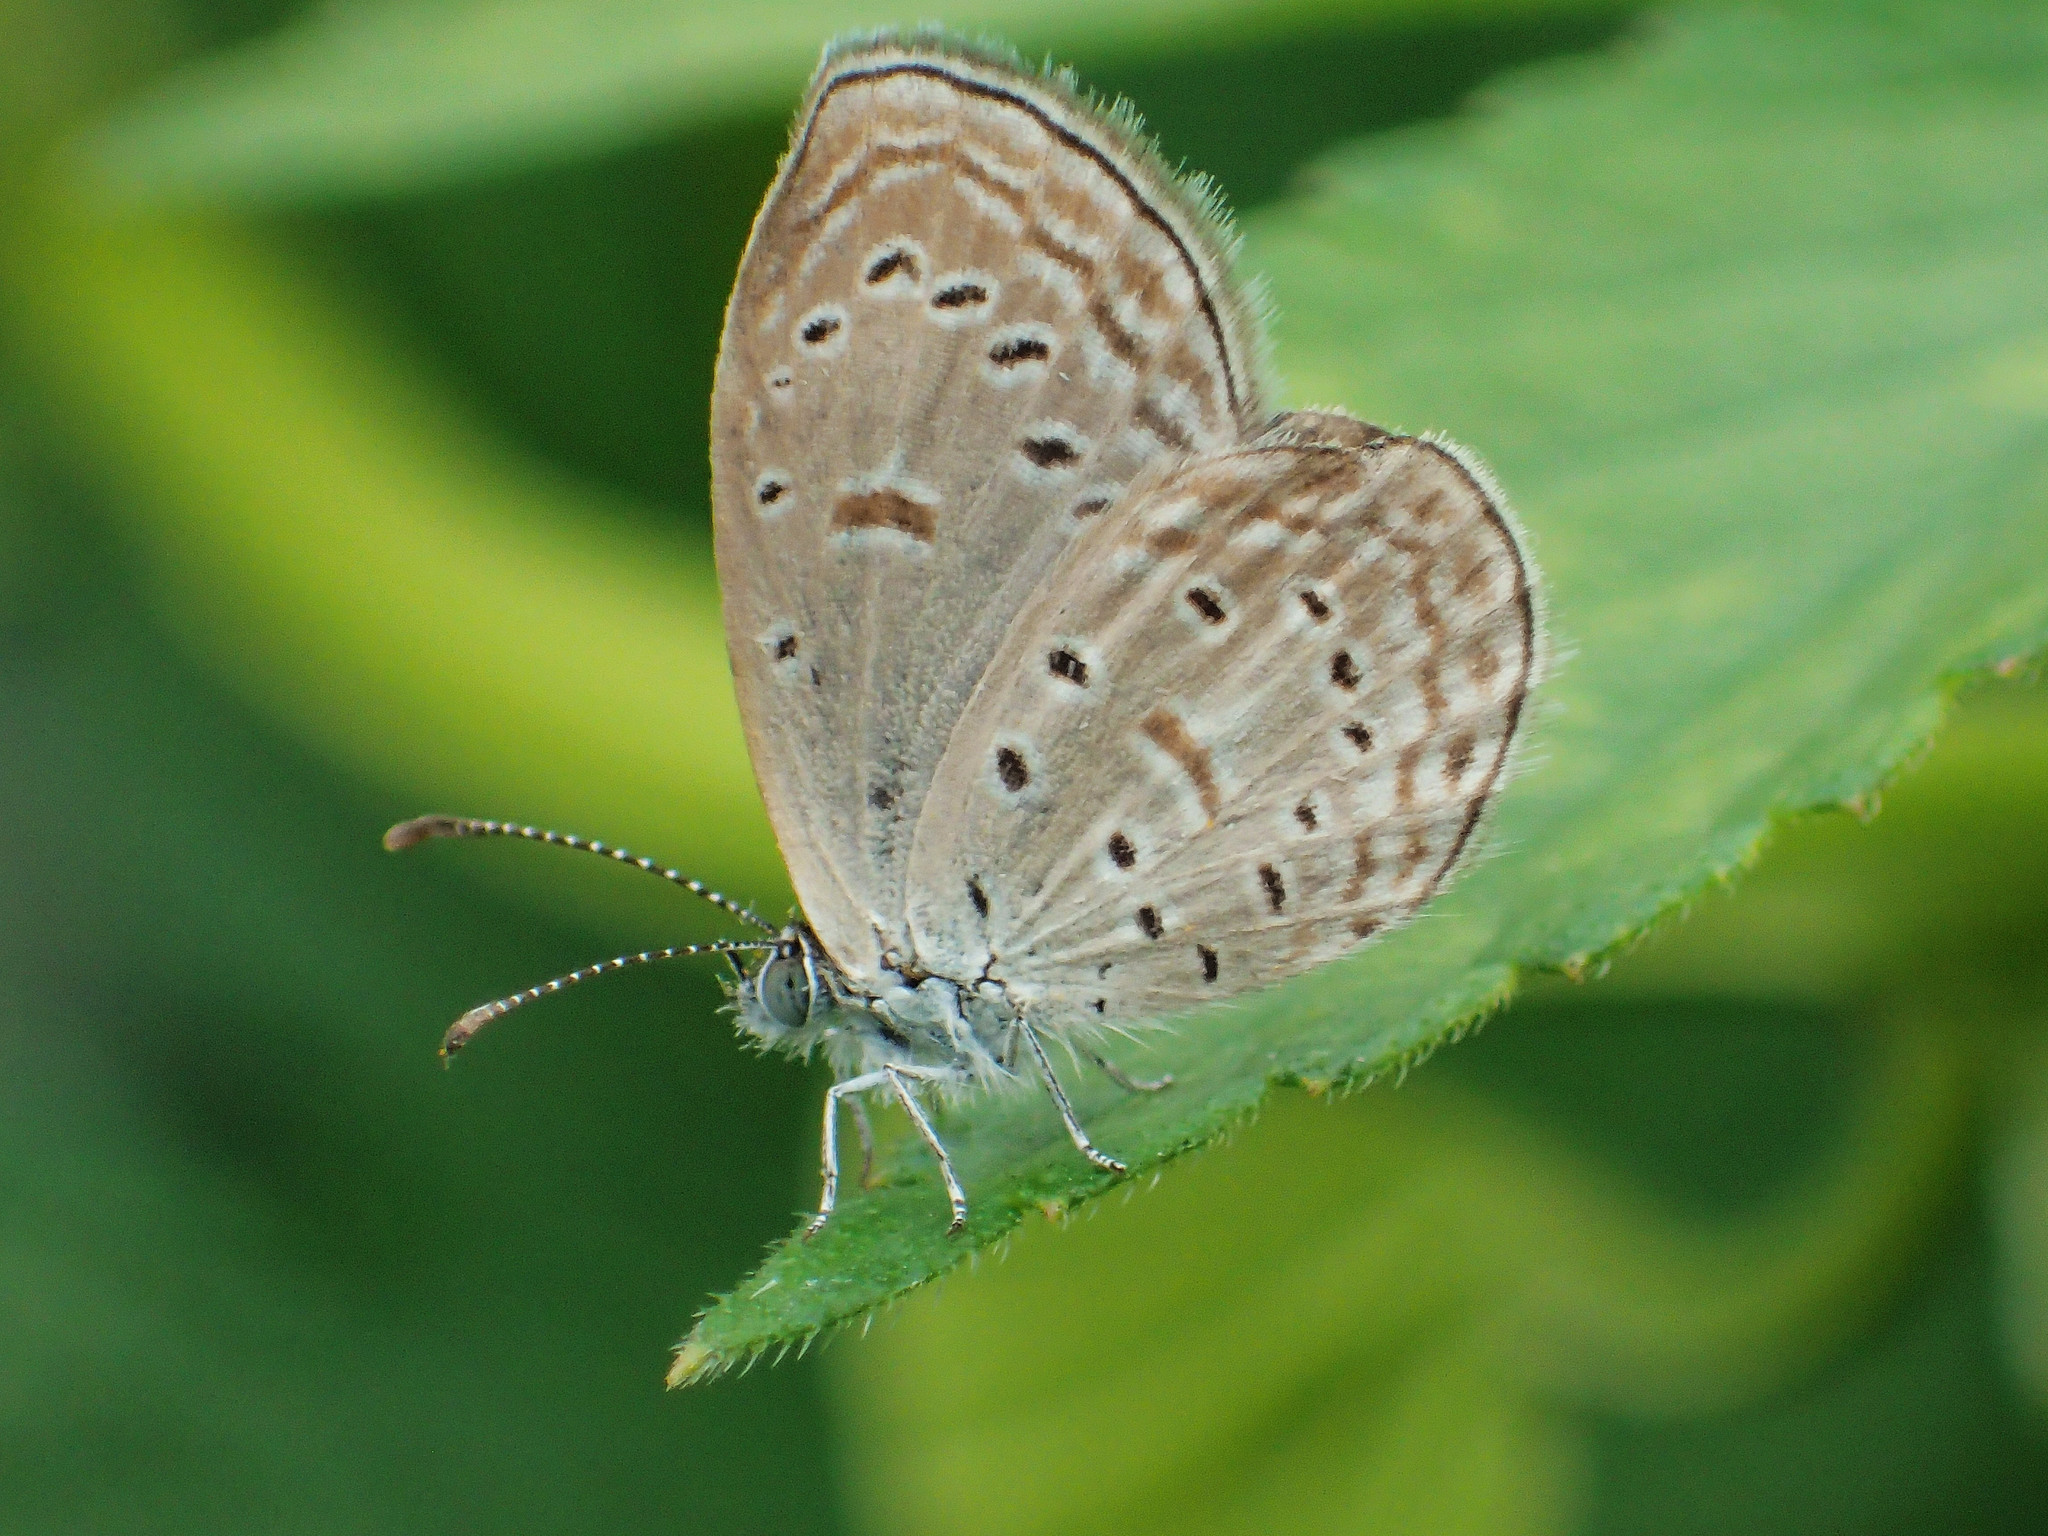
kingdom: Animalia
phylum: Arthropoda
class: Insecta
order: Lepidoptera
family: Lycaenidae
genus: Zizula
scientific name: Zizula hylax
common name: Gaika blue
